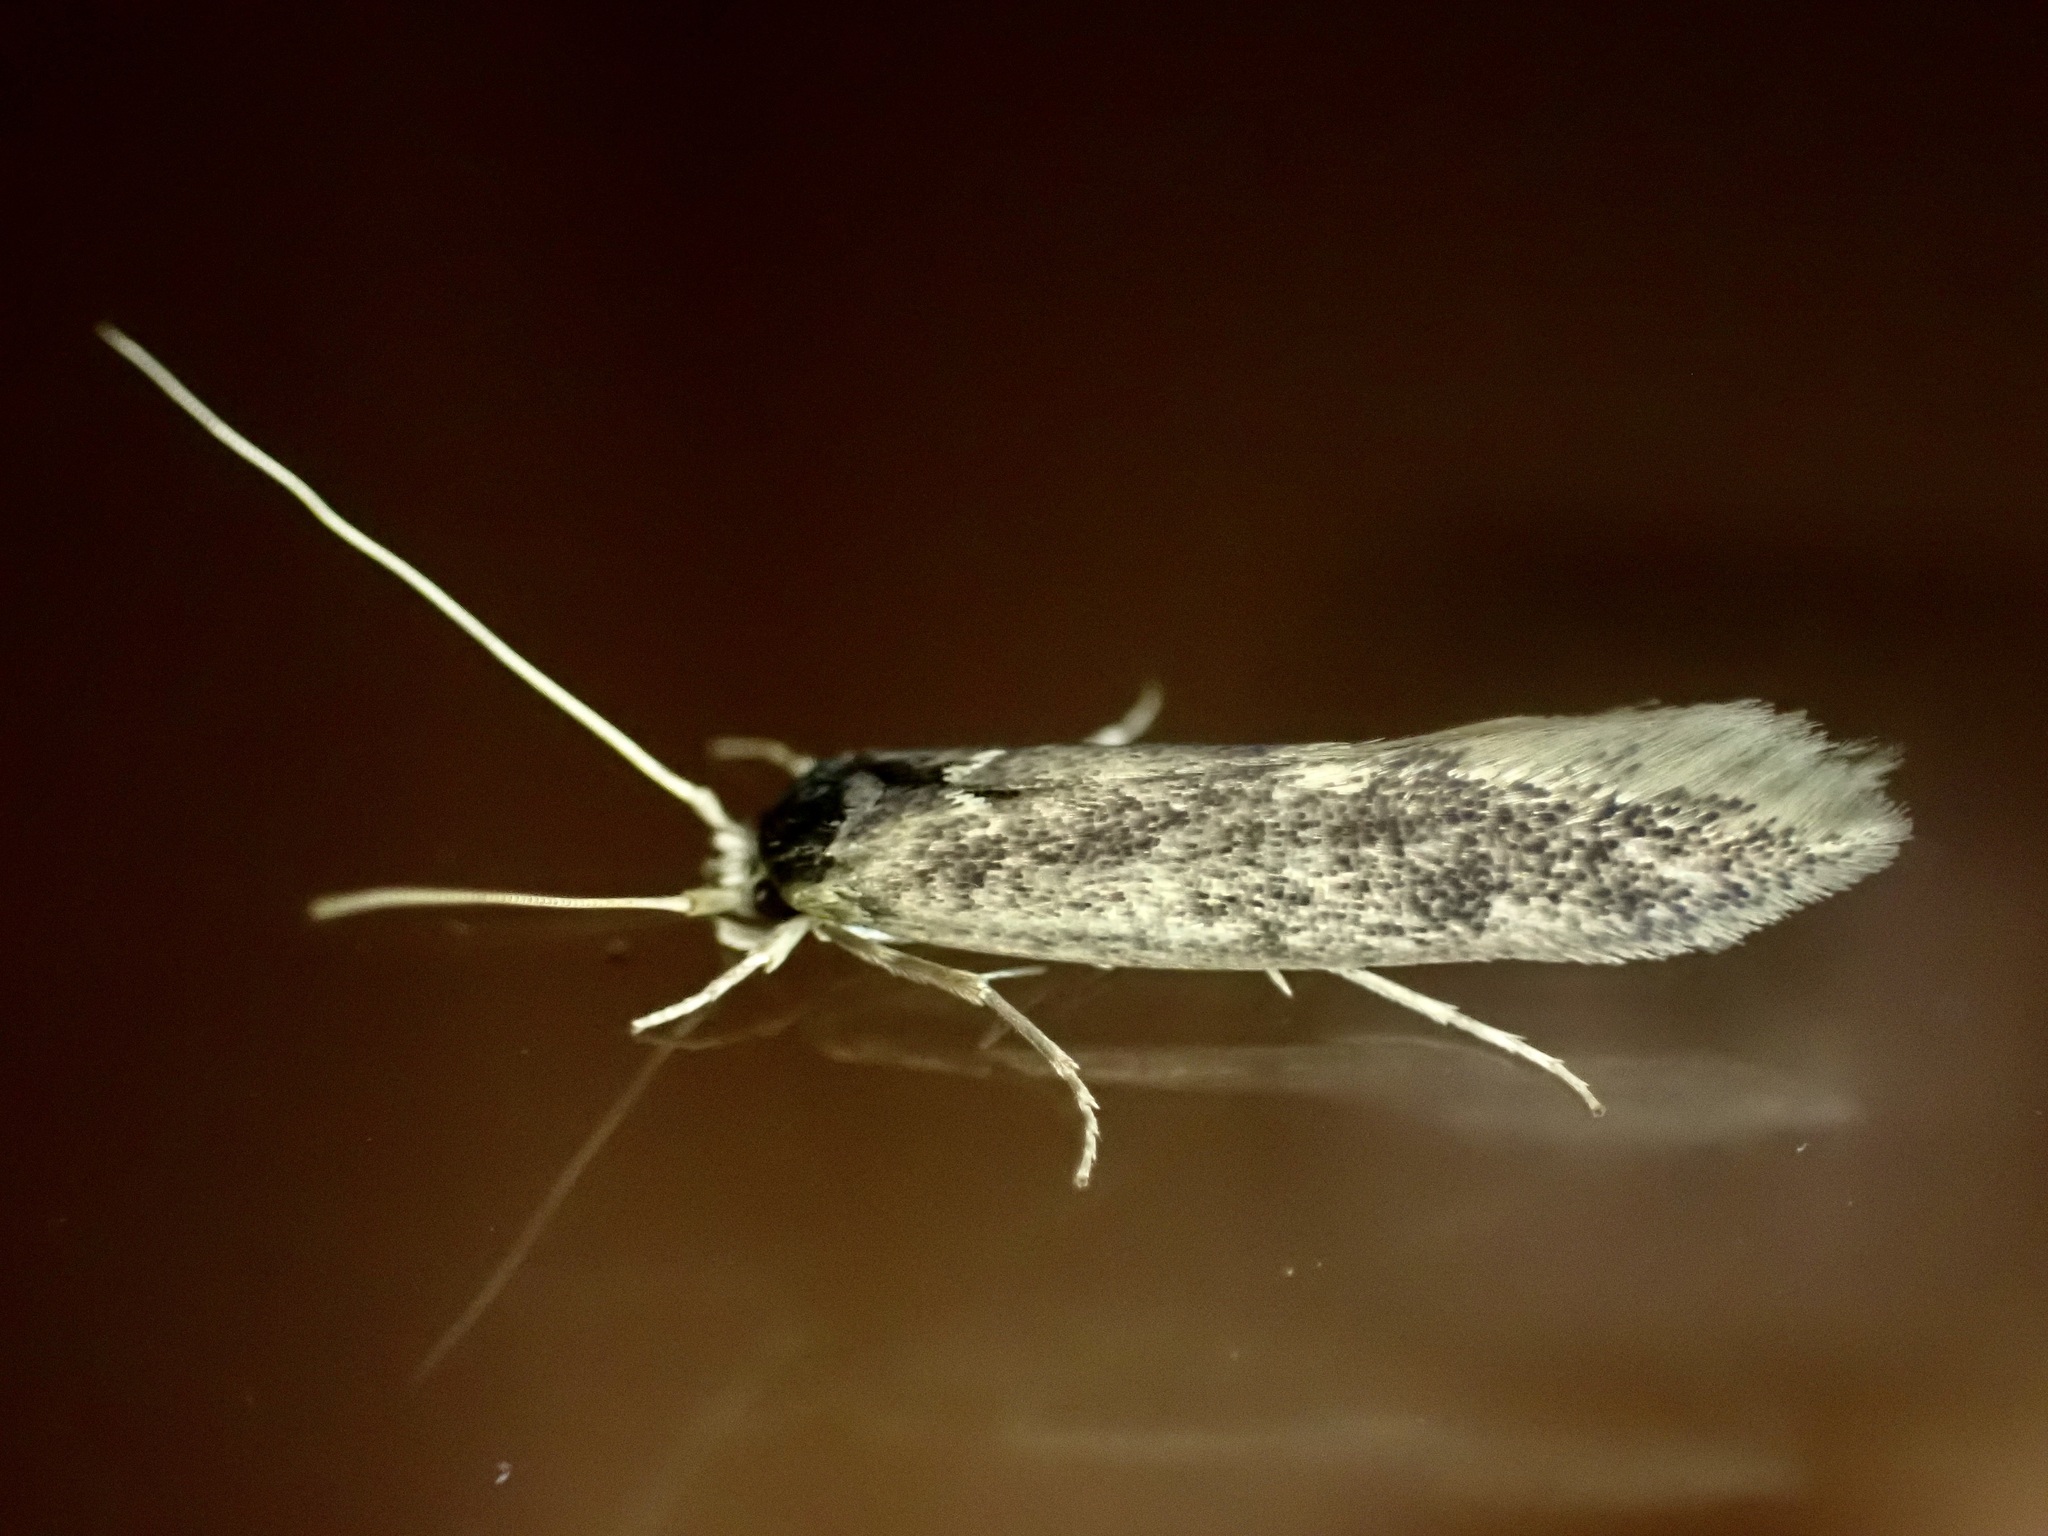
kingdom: Animalia
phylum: Arthropoda
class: Insecta
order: Lepidoptera
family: Tineidae
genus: Opogona
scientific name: Opogona omoscopa
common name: Moth
